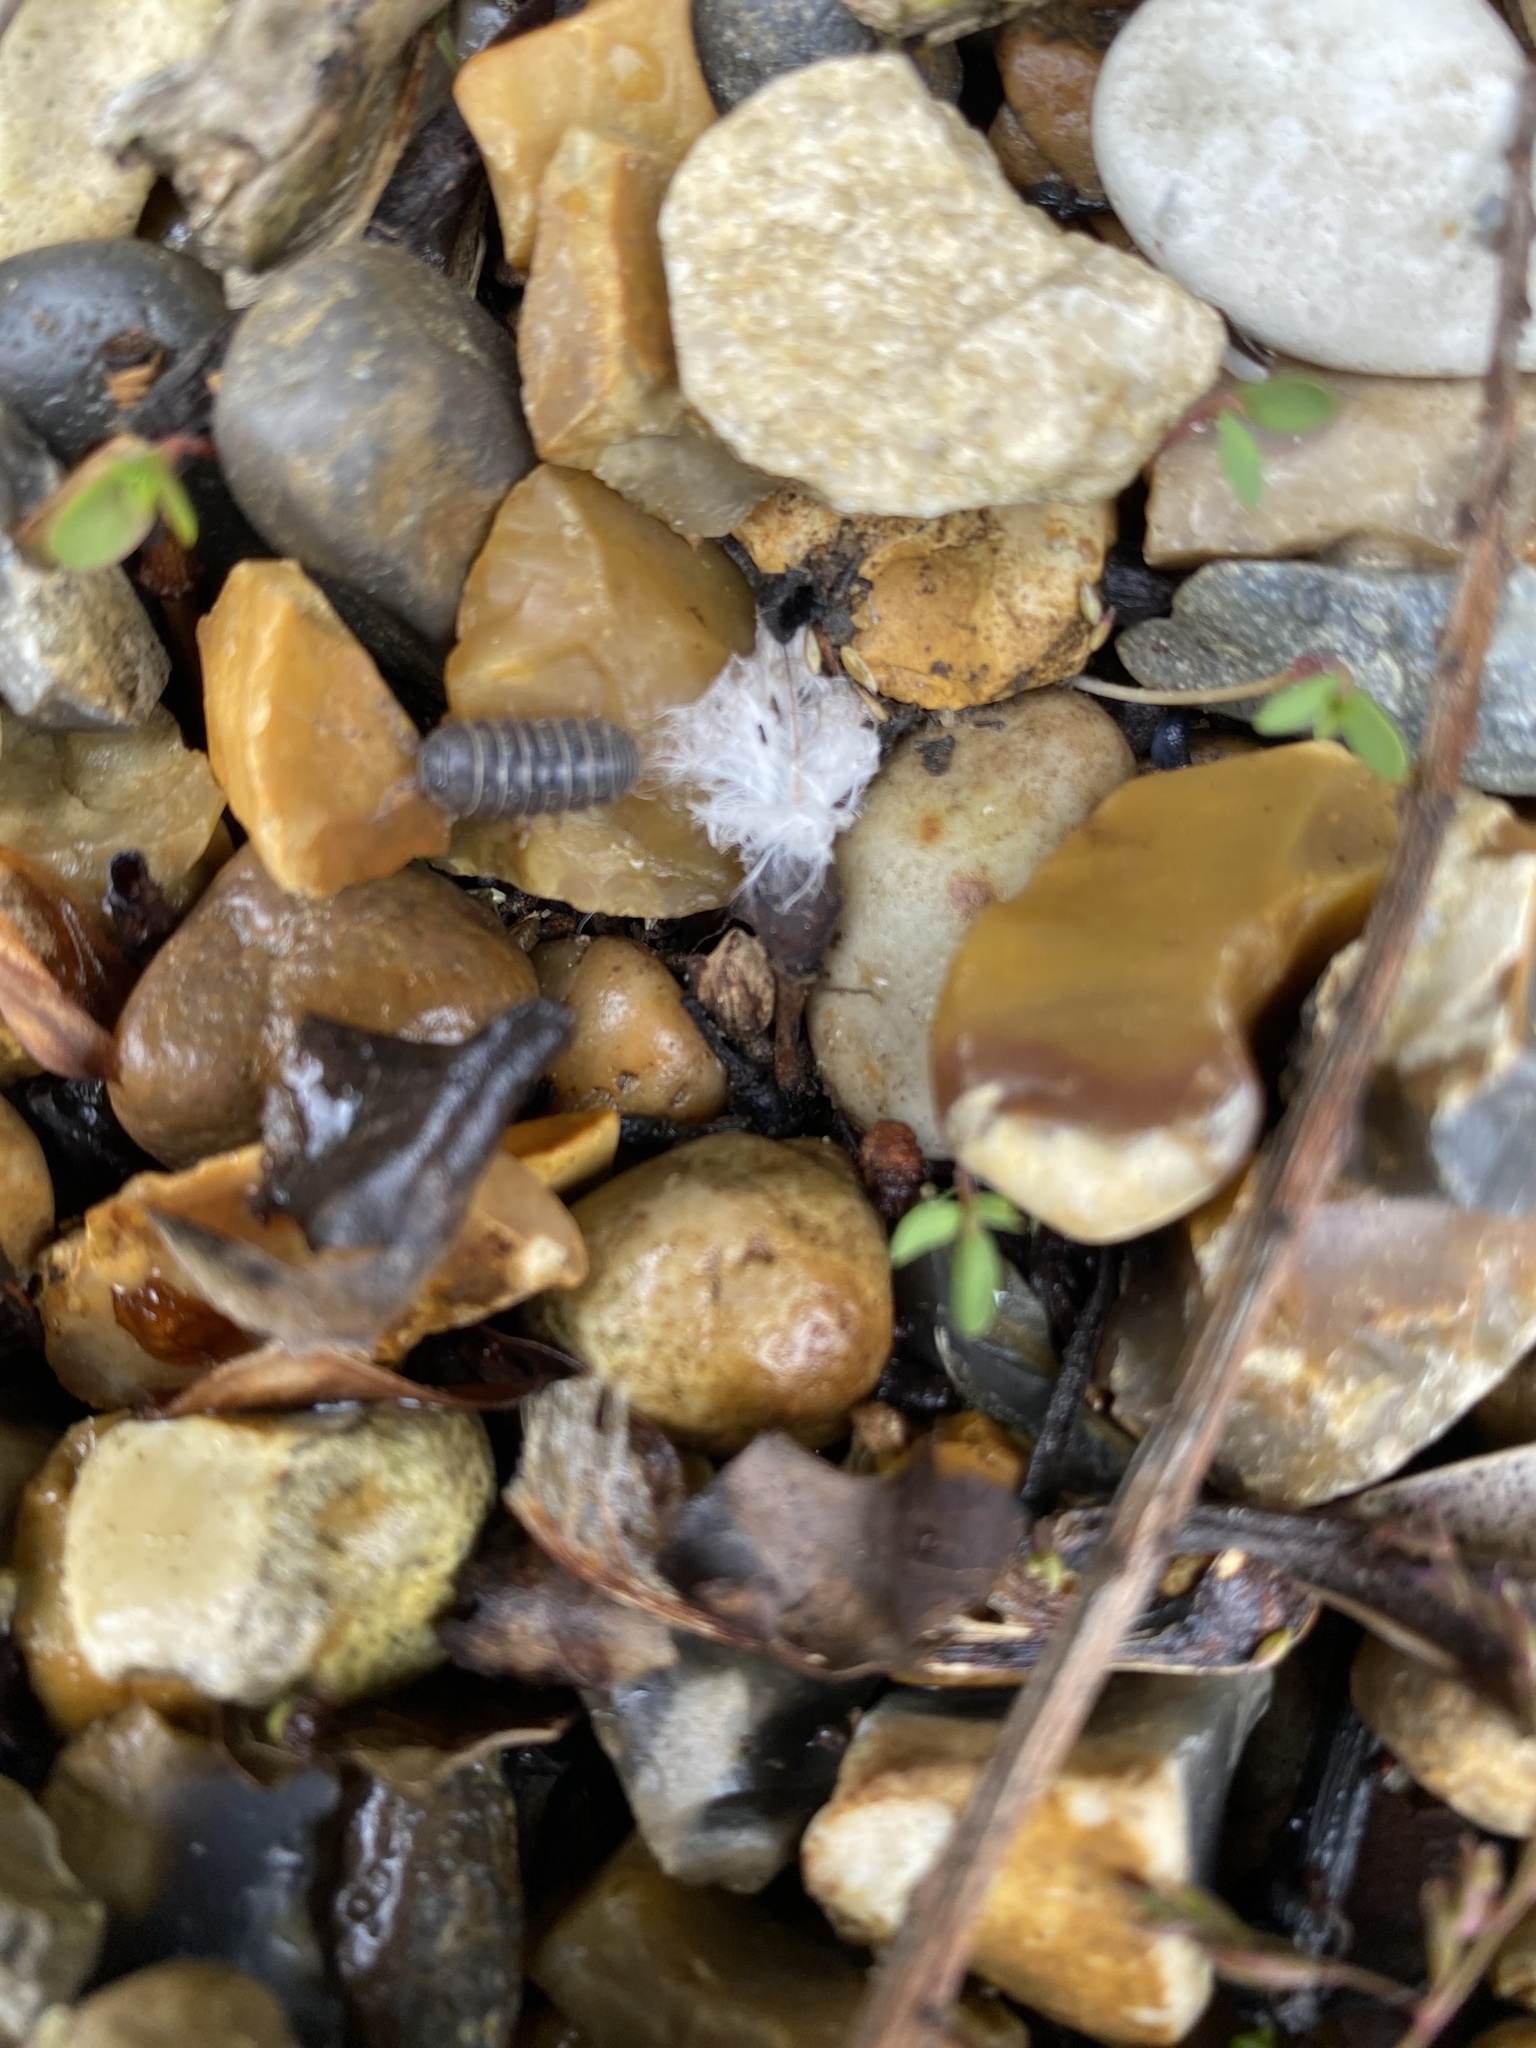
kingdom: Animalia
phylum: Arthropoda
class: Malacostraca
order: Isopoda
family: Armadillidiidae
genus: Armadillidium
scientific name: Armadillidium vulgare
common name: Common pill woodlouse
